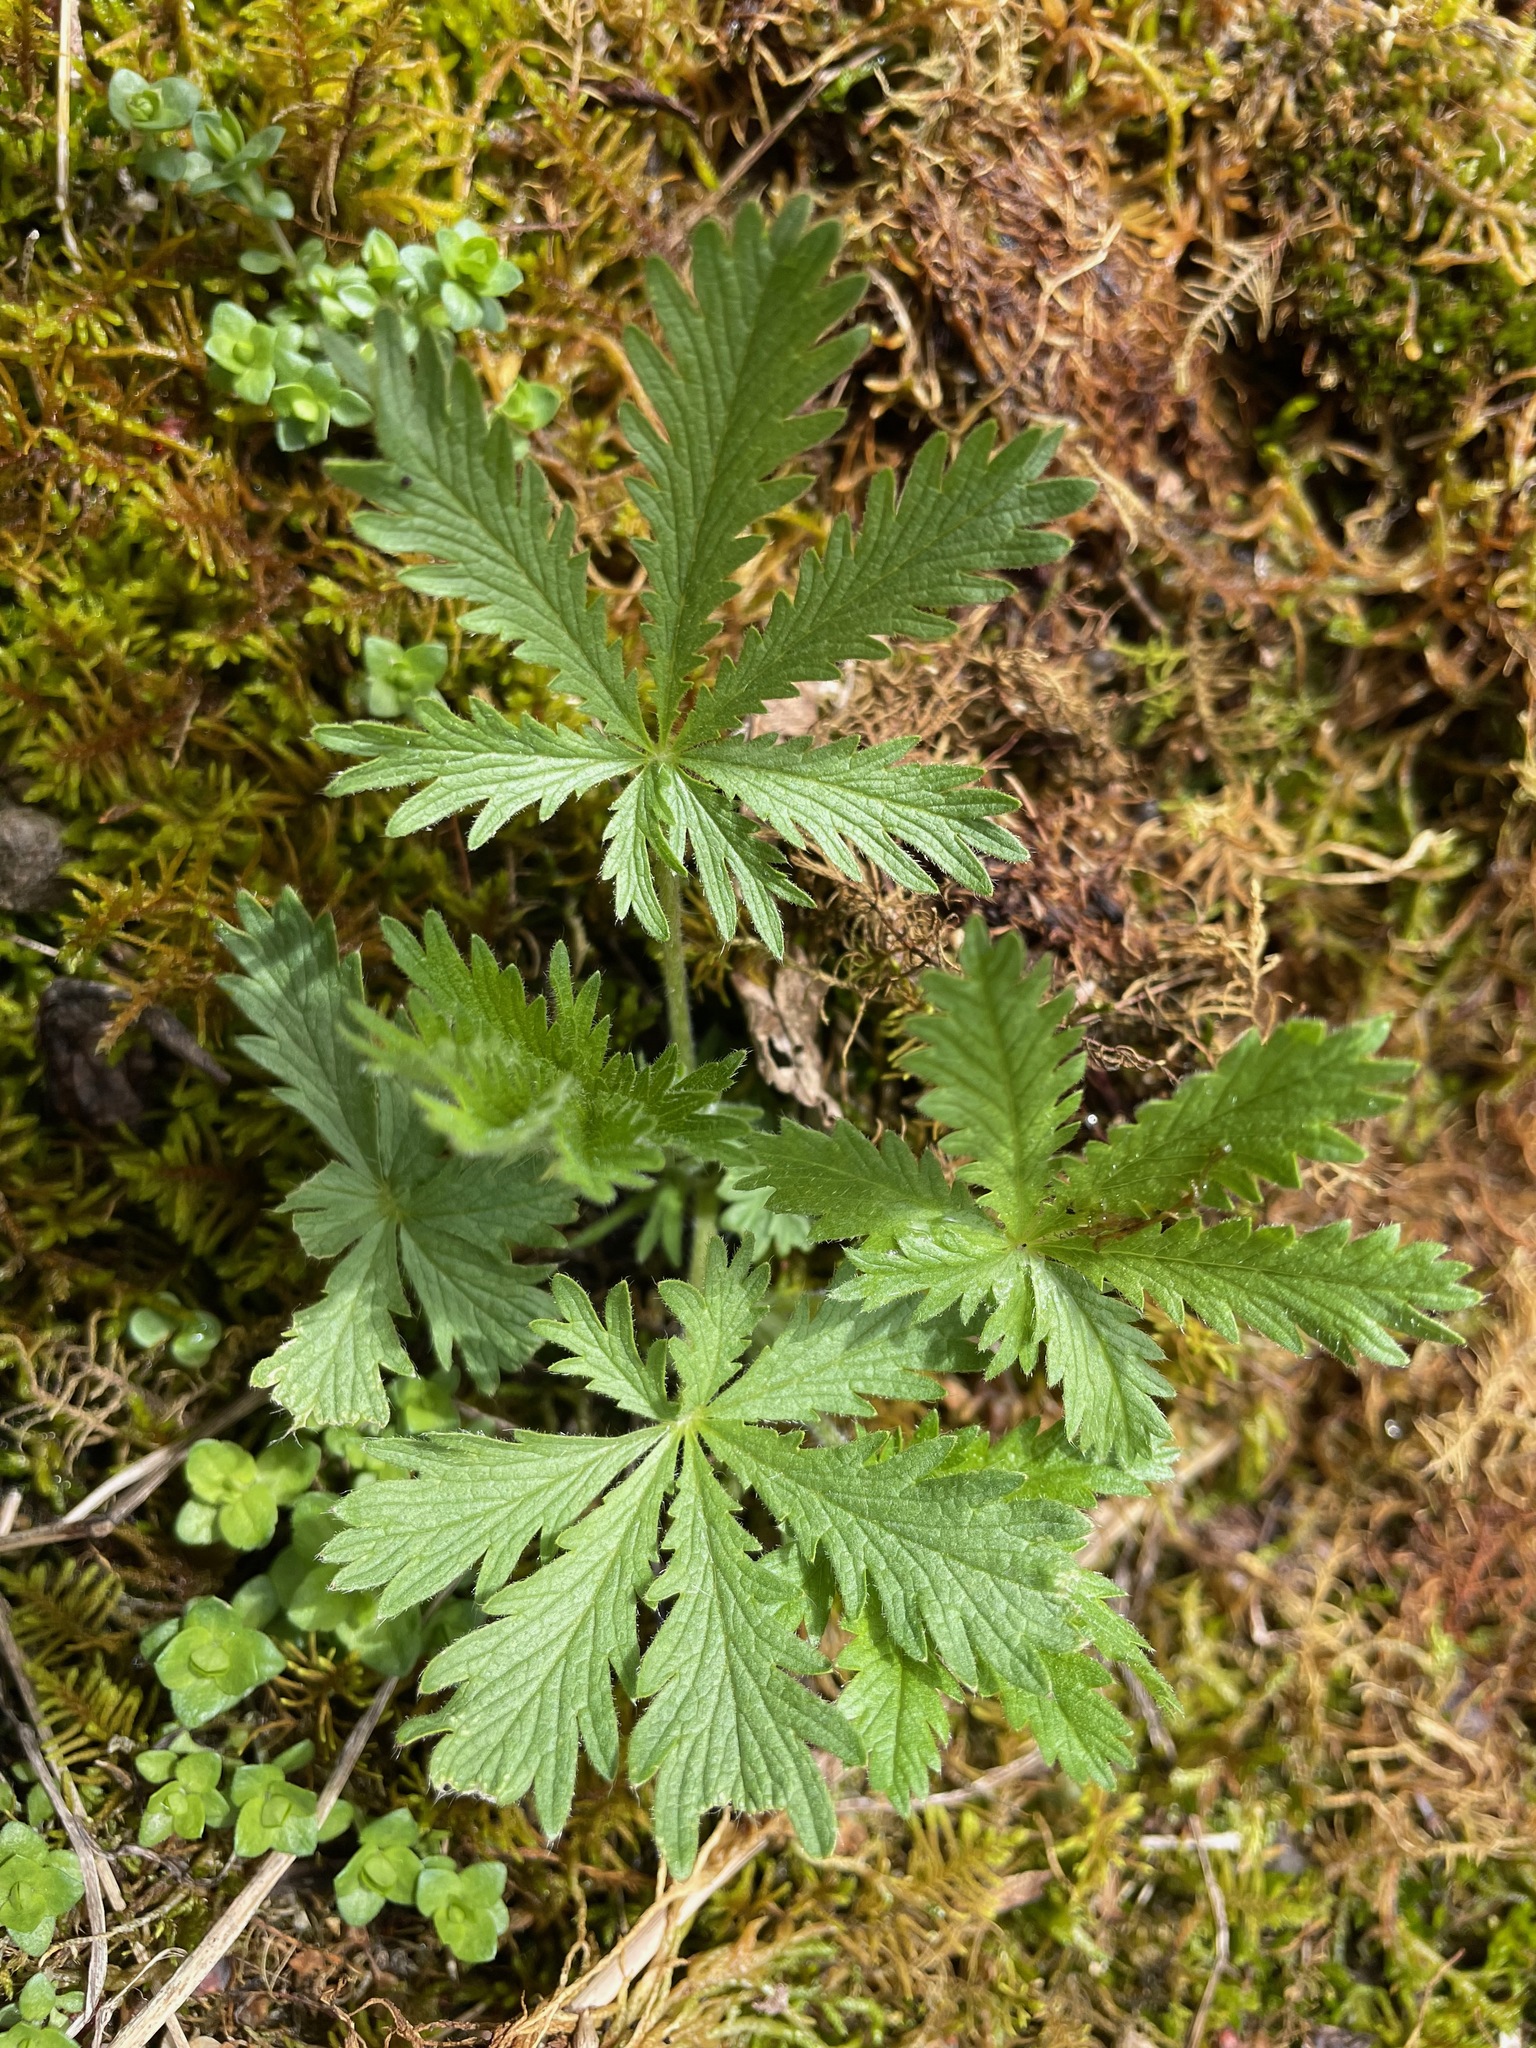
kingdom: Plantae
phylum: Tracheophyta
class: Magnoliopsida
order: Rosales
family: Rosaceae
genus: Potentilla
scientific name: Potentilla recta
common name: Sulphur cinquefoil
